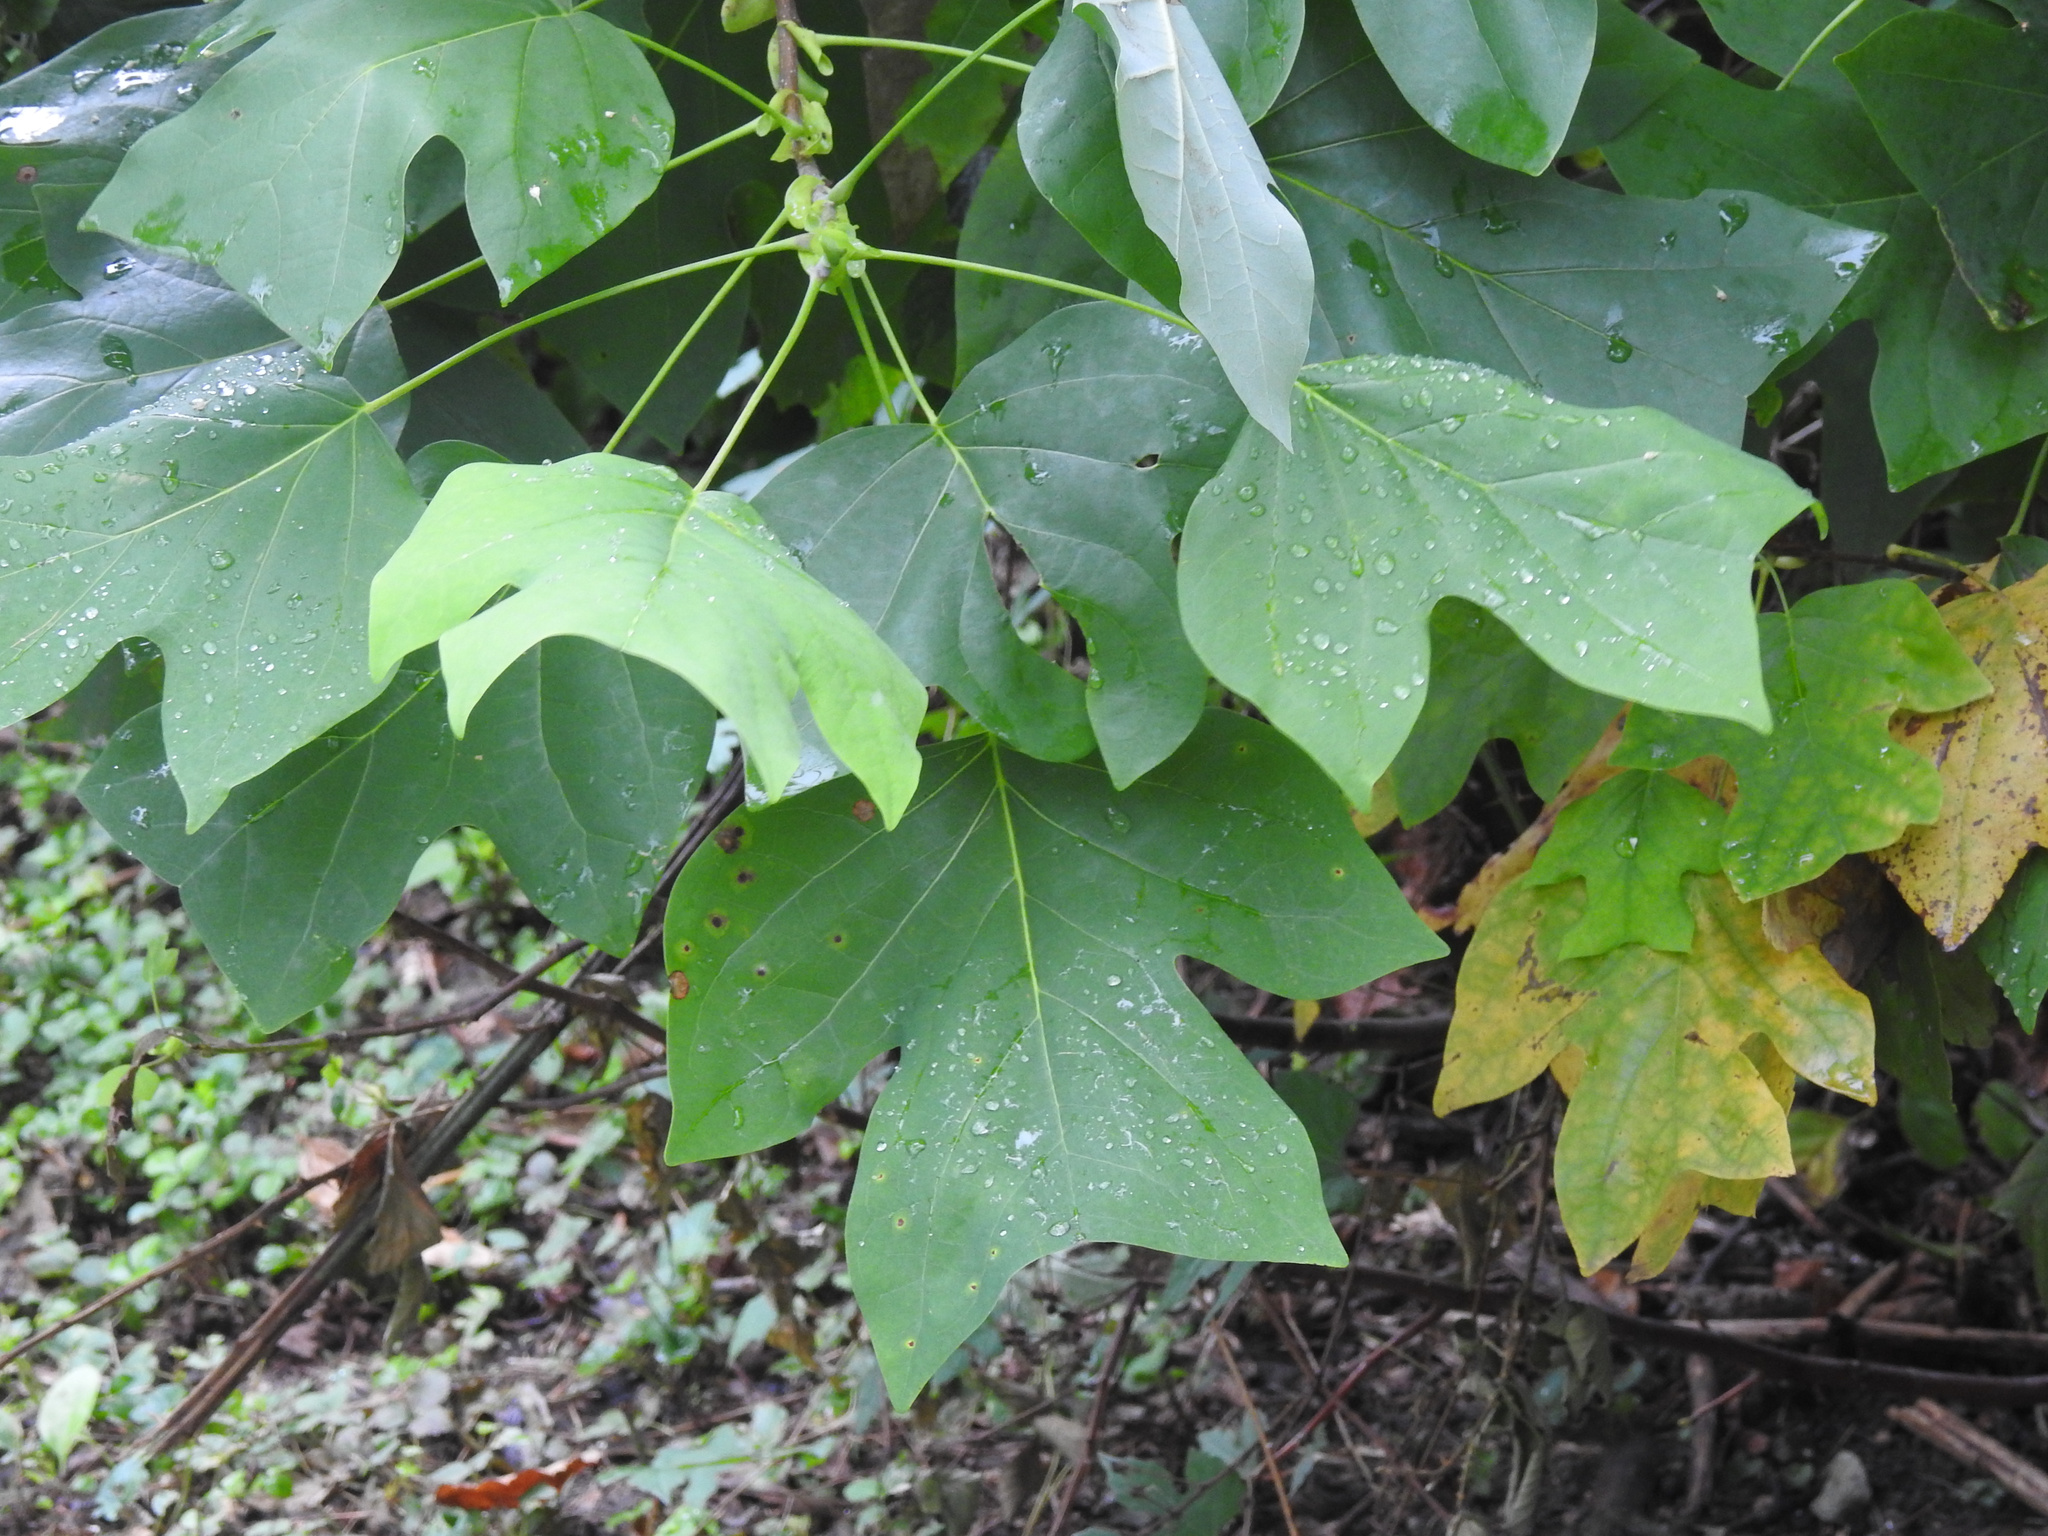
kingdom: Plantae
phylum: Tracheophyta
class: Magnoliopsida
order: Magnoliales
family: Magnoliaceae
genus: Liriodendron
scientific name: Liriodendron tulipifera
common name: Tulip tree
